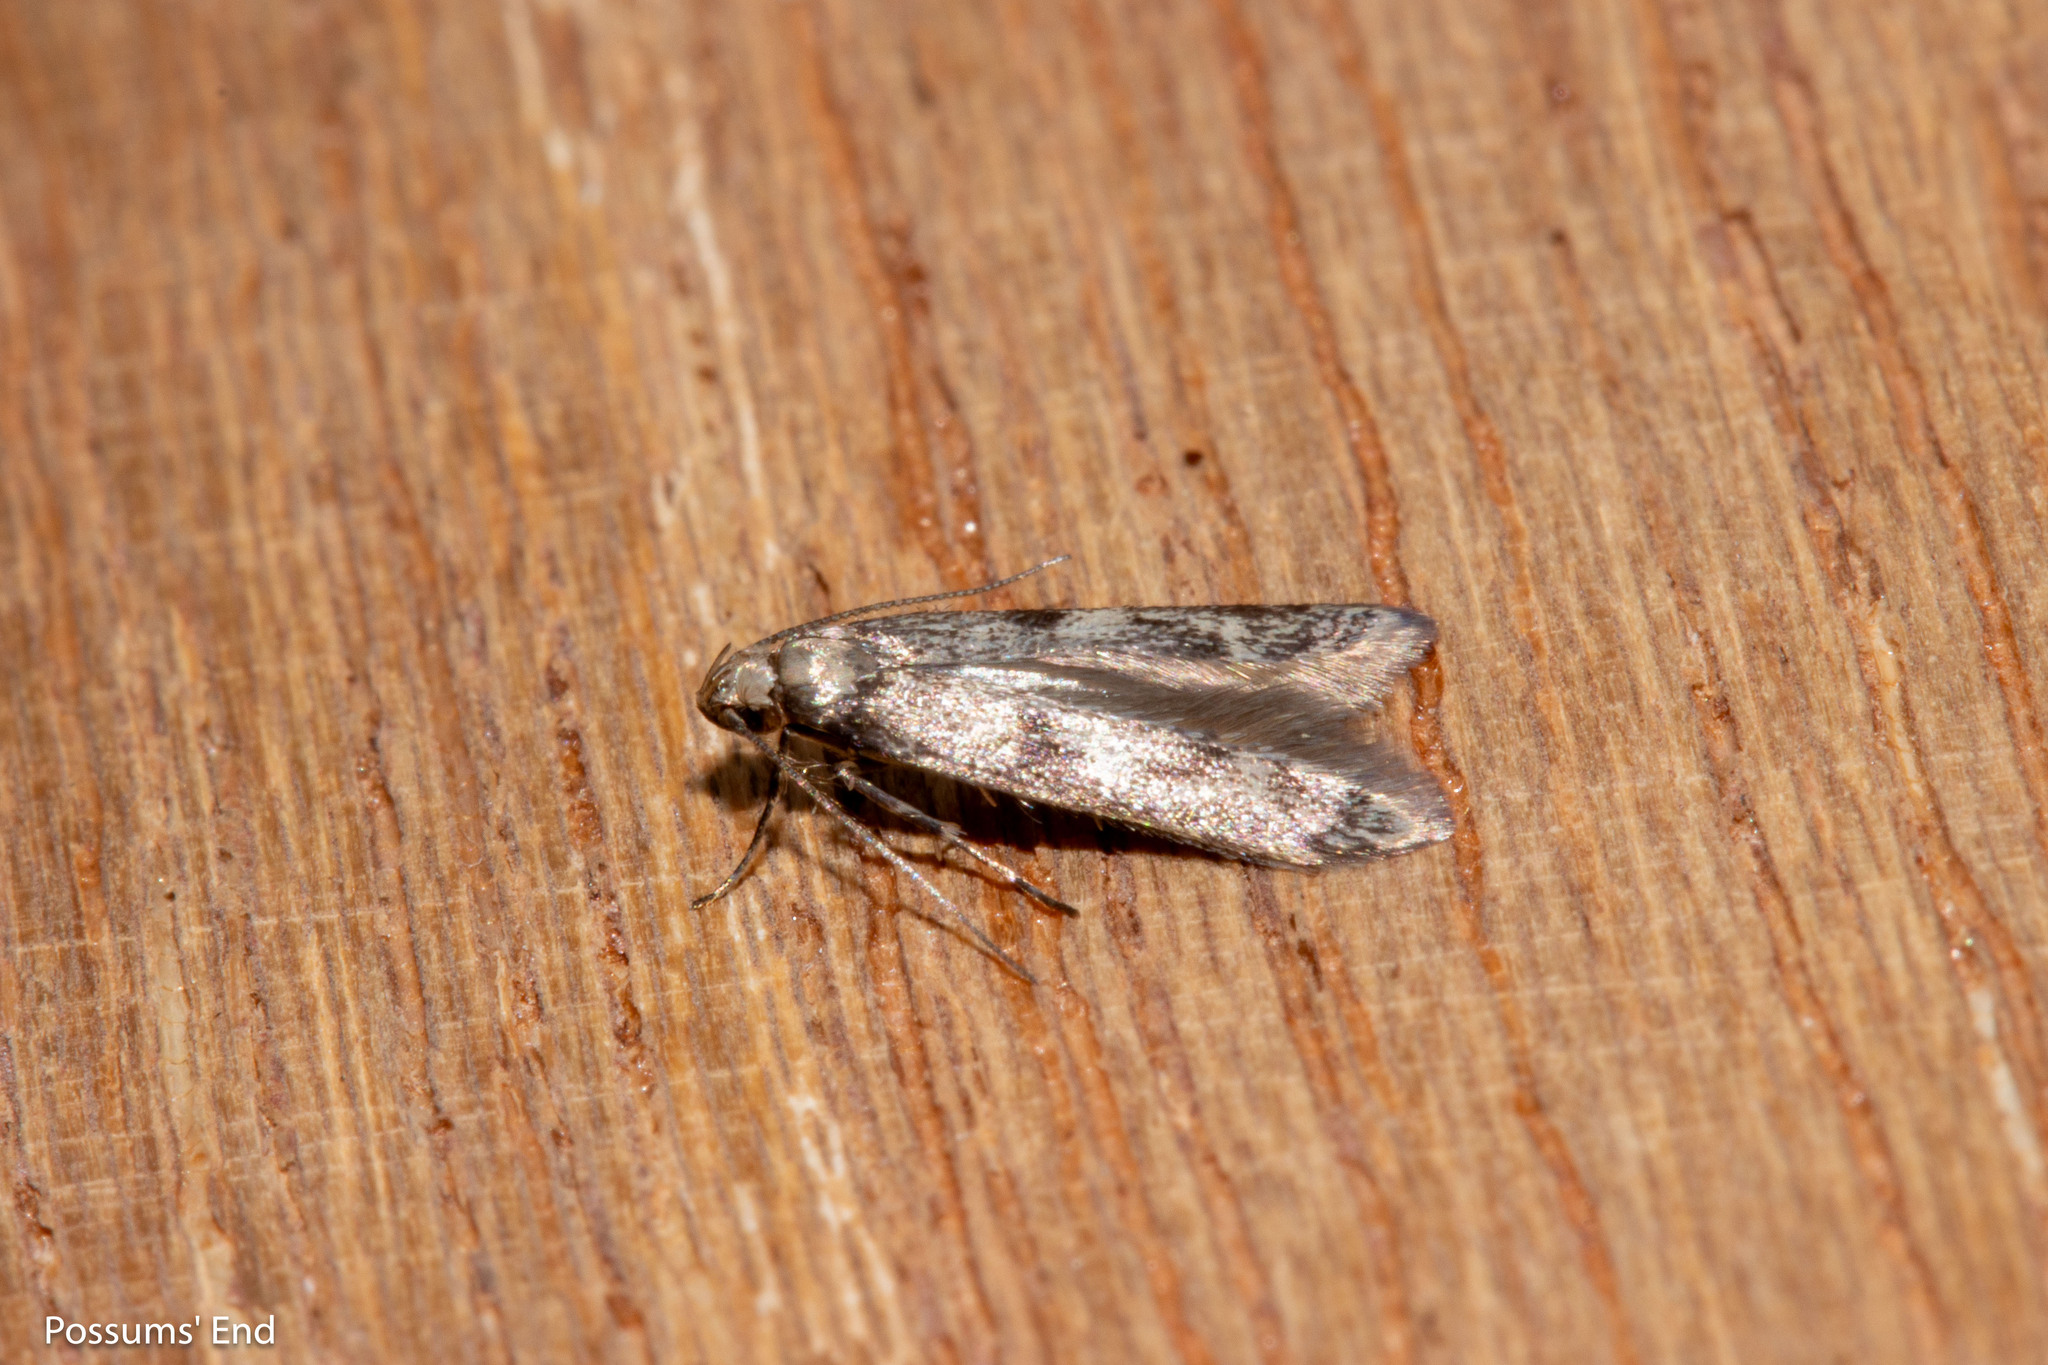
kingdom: Animalia
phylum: Arthropoda
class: Insecta
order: Lepidoptera
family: Gelechiidae
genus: Thiotricha
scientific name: Thiotricha tetraphala
